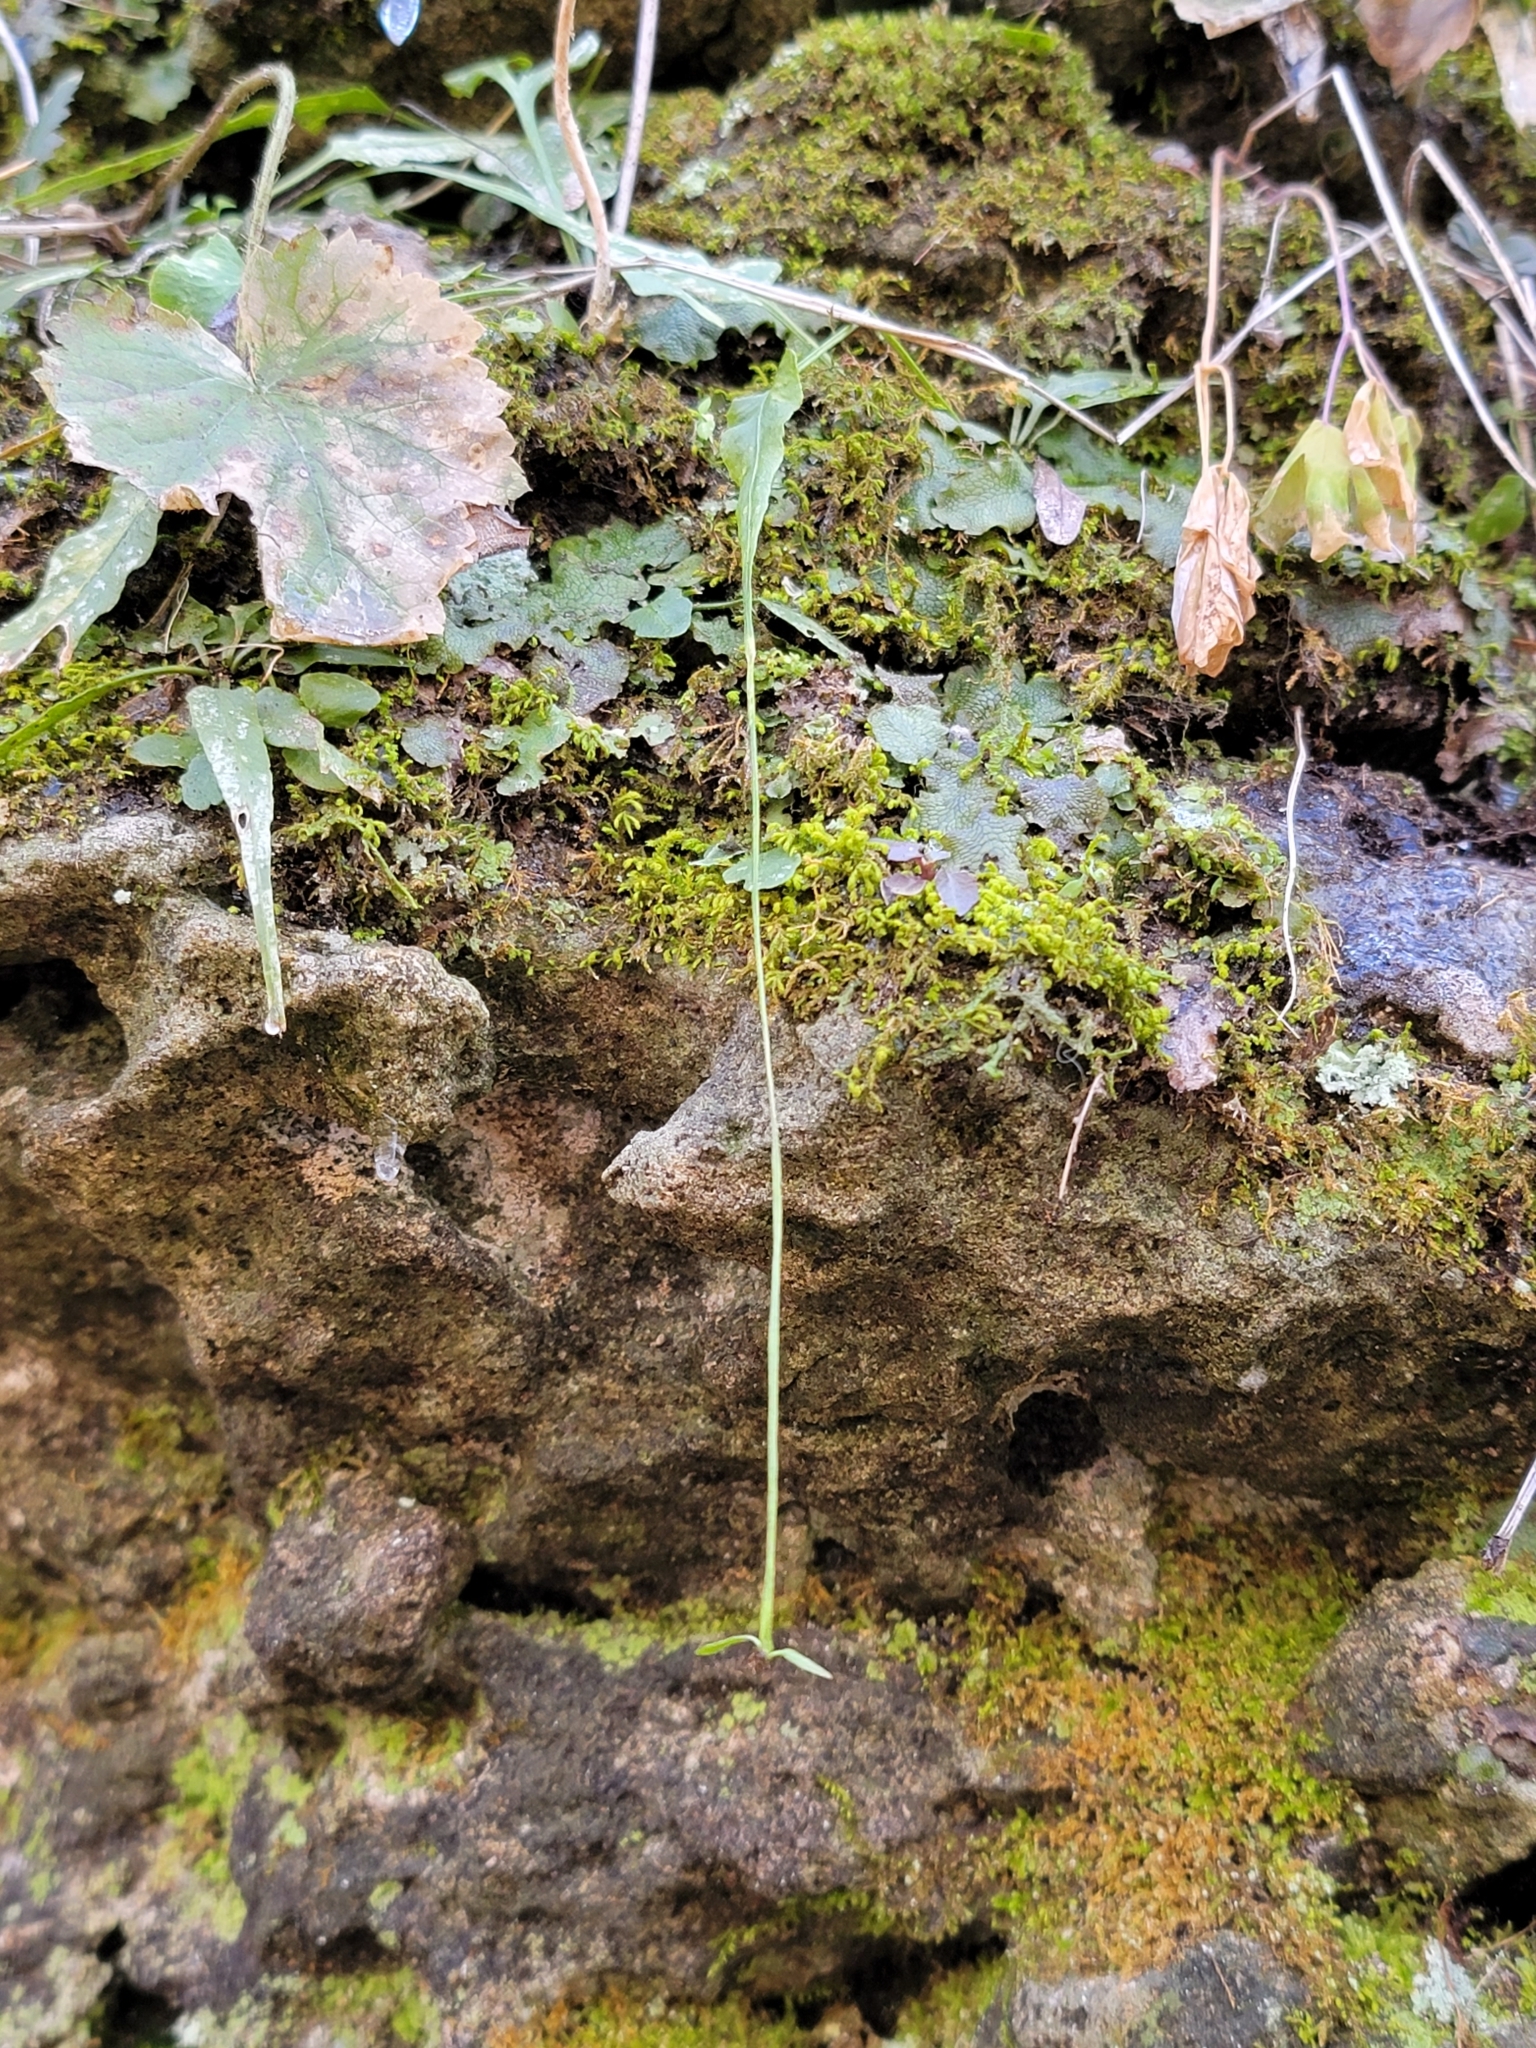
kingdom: Plantae
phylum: Tracheophyta
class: Polypodiopsida
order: Polypodiales
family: Aspleniaceae
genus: Asplenium
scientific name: Asplenium rhizophyllum
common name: Walking fern
